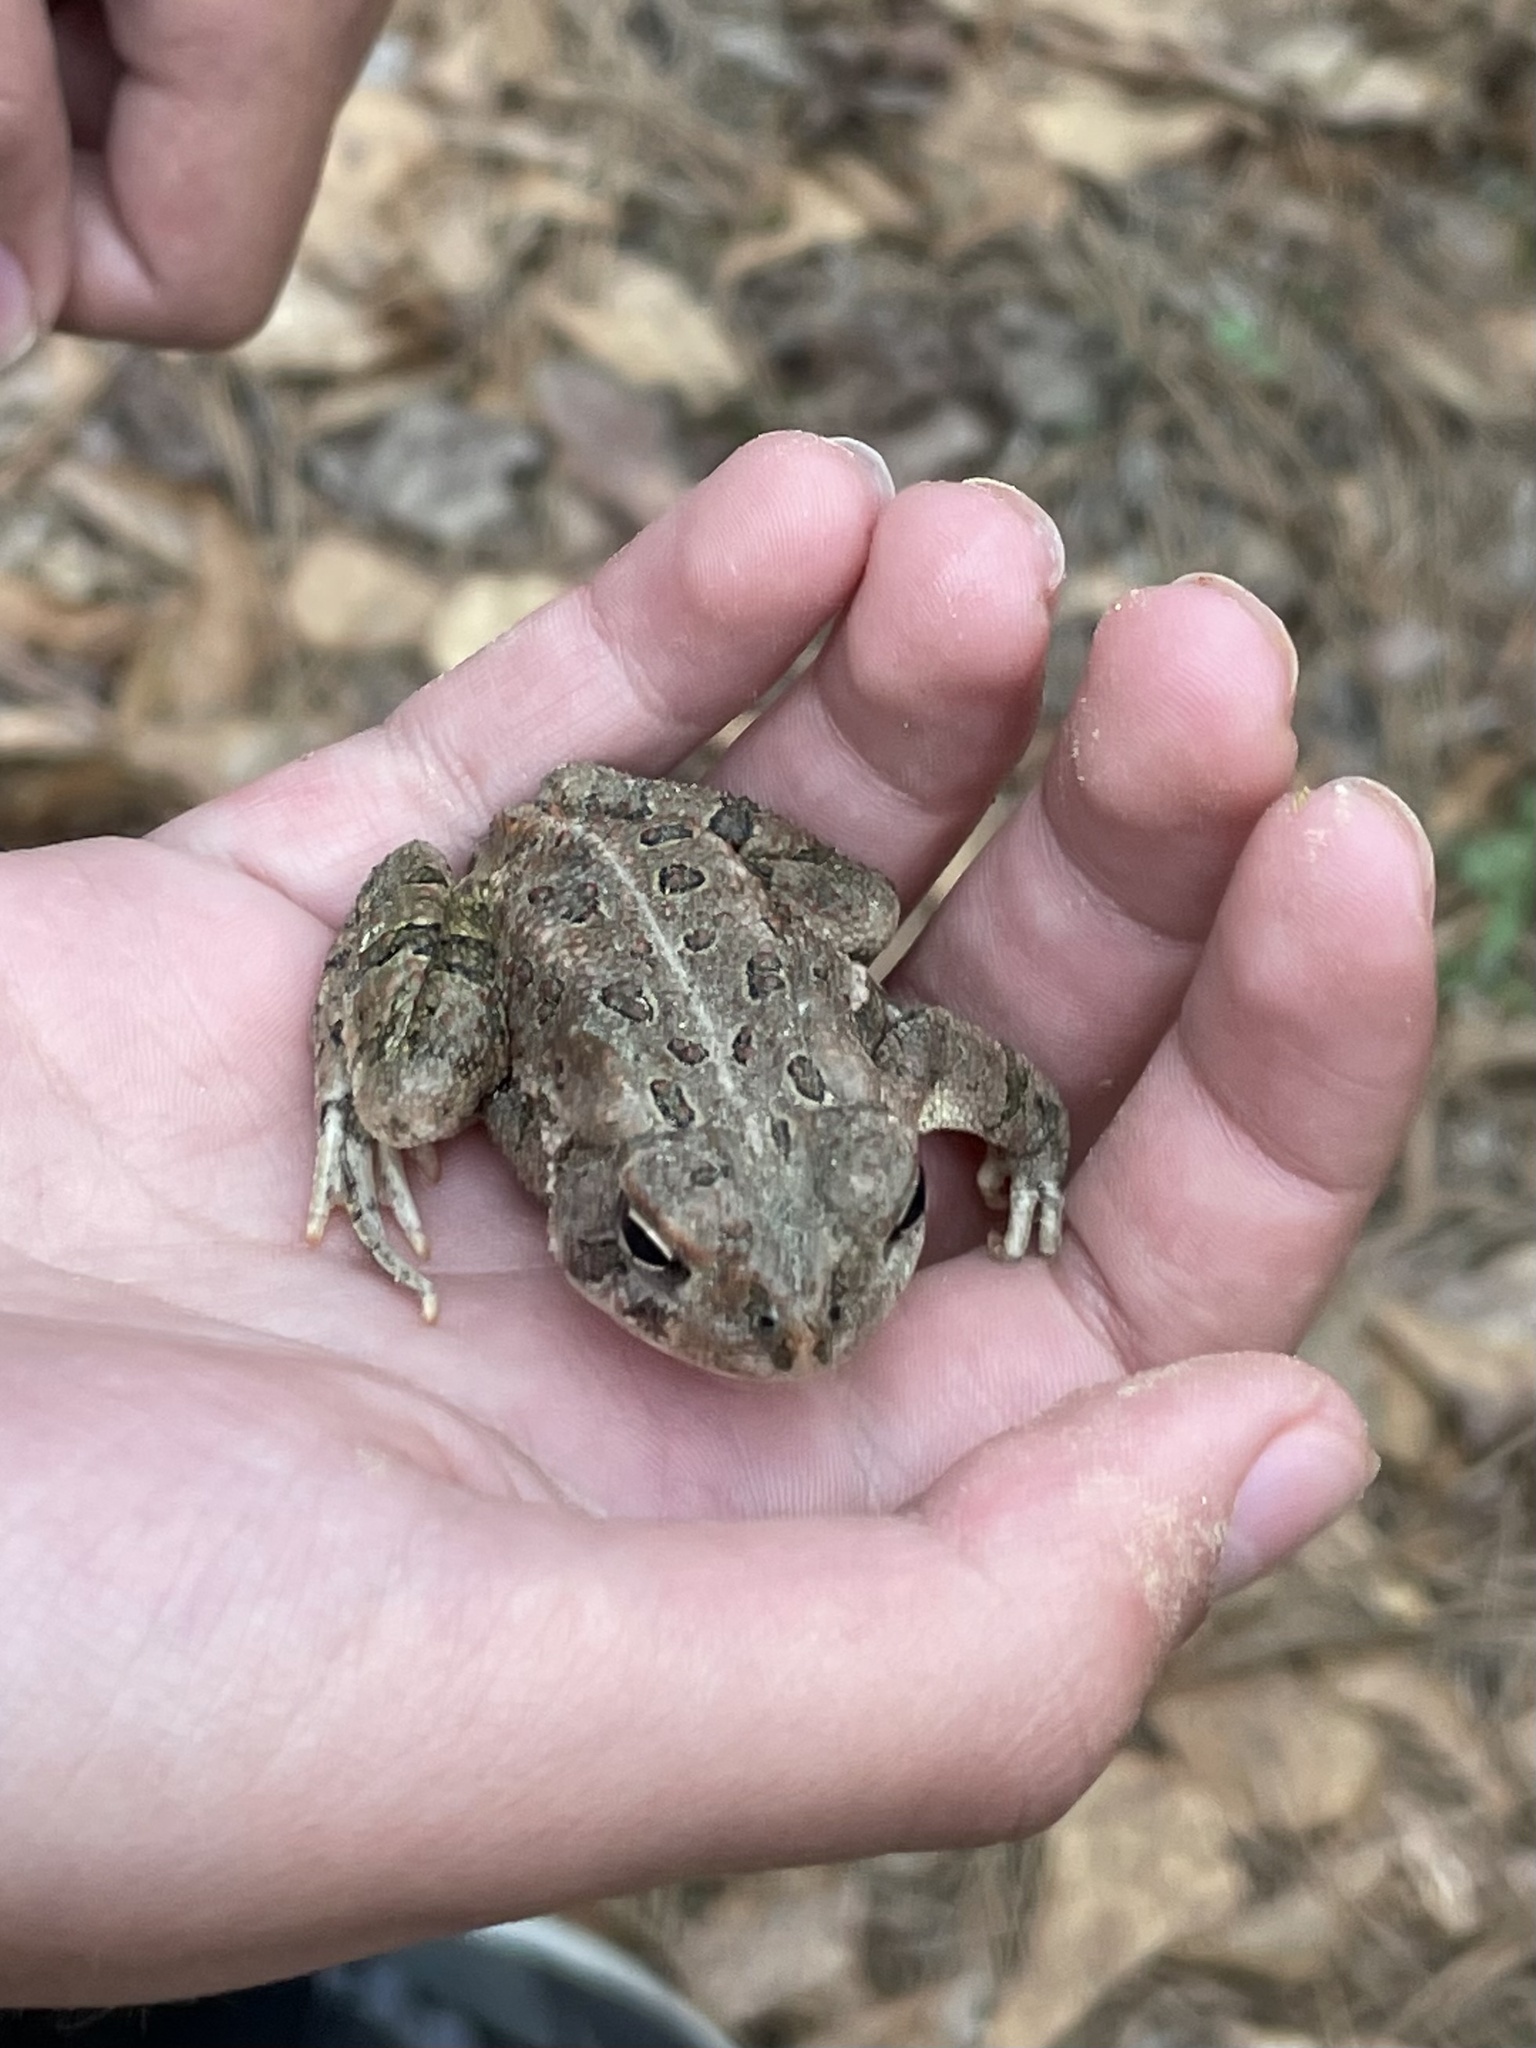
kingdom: Animalia
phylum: Chordata
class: Amphibia
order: Anura
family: Bufonidae
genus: Anaxyrus
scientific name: Anaxyrus fowleri
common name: Fowler's toad
